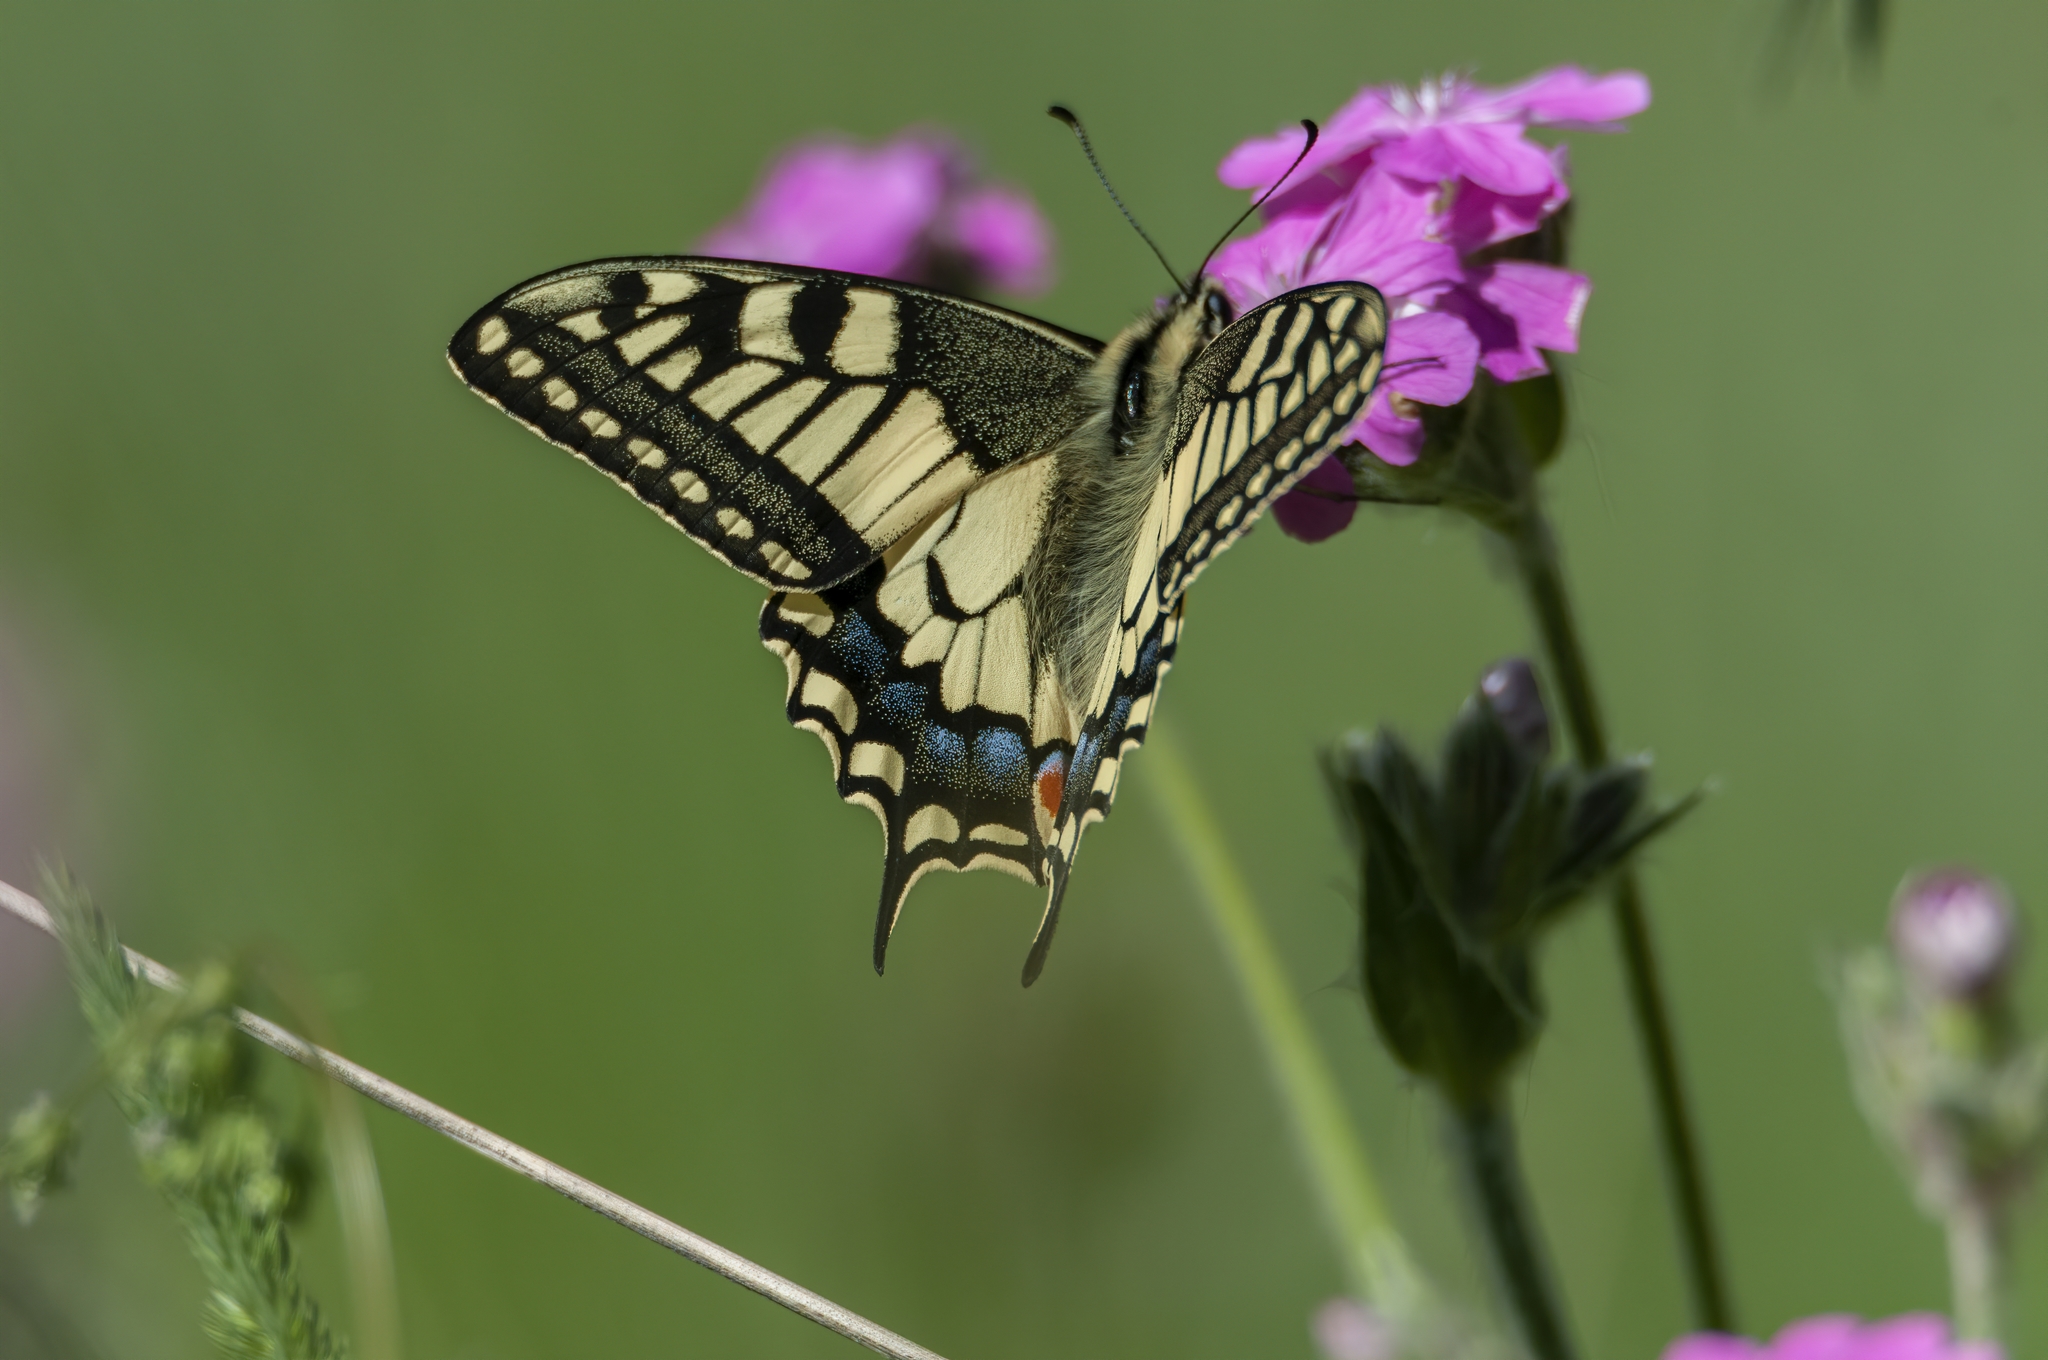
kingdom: Animalia
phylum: Arthropoda
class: Insecta
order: Lepidoptera
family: Papilionidae
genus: Papilio
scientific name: Papilio machaon
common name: Swallowtail
